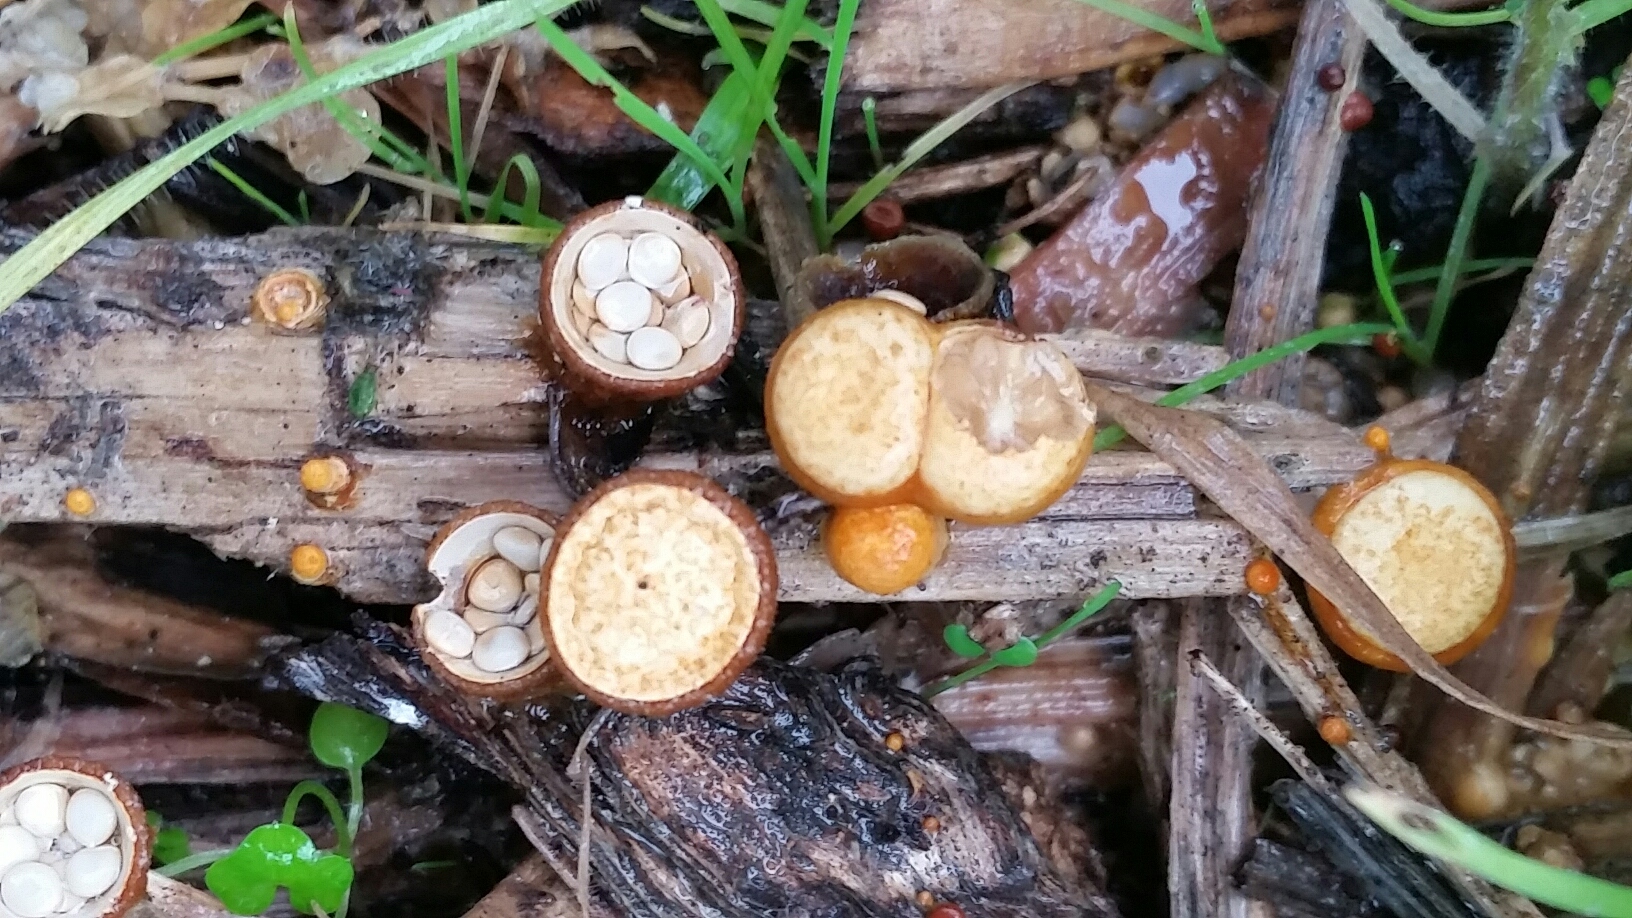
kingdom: Fungi
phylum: Basidiomycota
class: Agaricomycetes
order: Agaricales
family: Nidulariaceae
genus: Crucibulum
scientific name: Crucibulum laeve
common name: Common bird's nest
